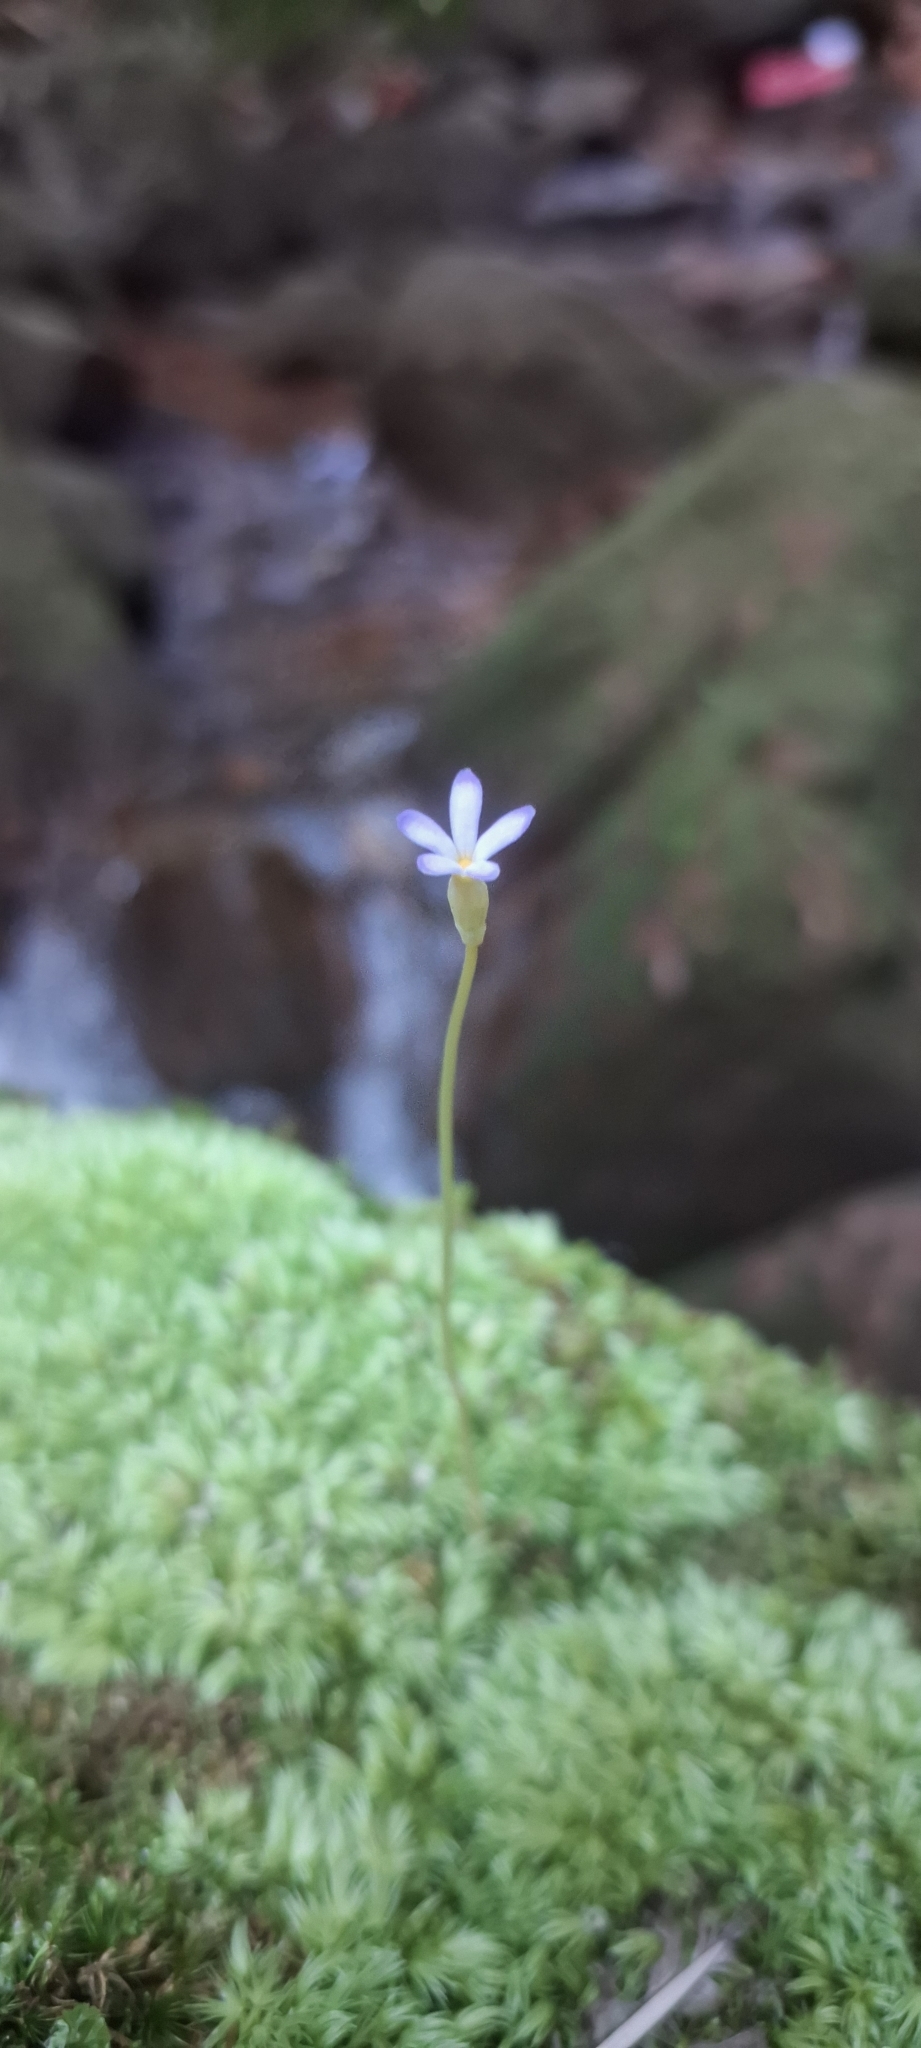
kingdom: Plantae
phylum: Tracheophyta
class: Magnoliopsida
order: Gentianales
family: Gentianaceae
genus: Voyria
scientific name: Voyria tenella
